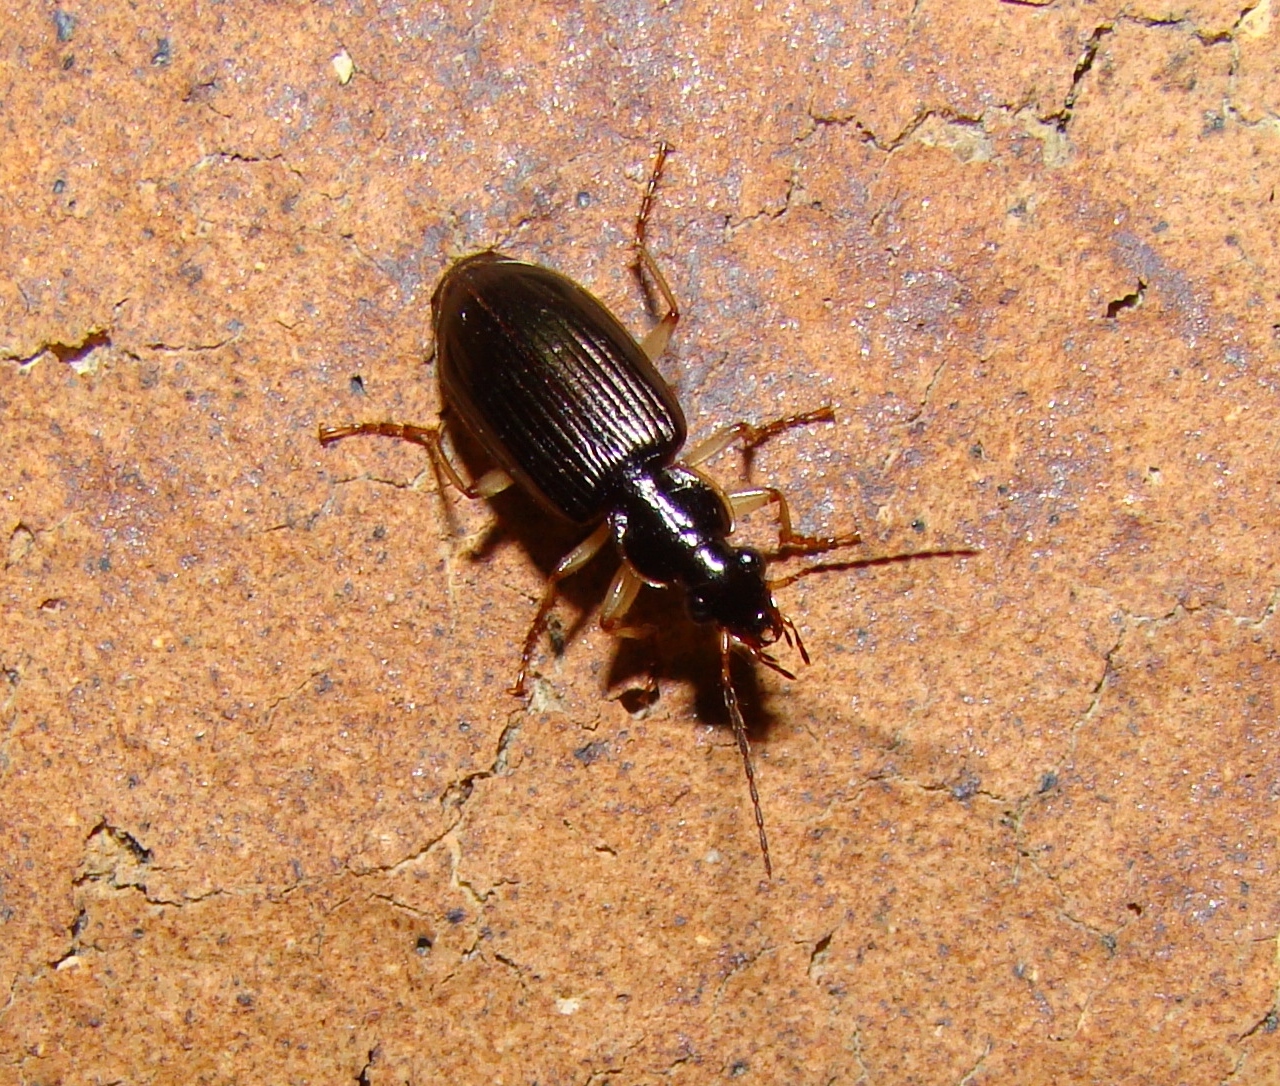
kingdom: Animalia
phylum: Arthropoda
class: Insecta
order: Coleoptera
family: Carabidae
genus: Notagonum
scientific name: Notagonum submetallicum
